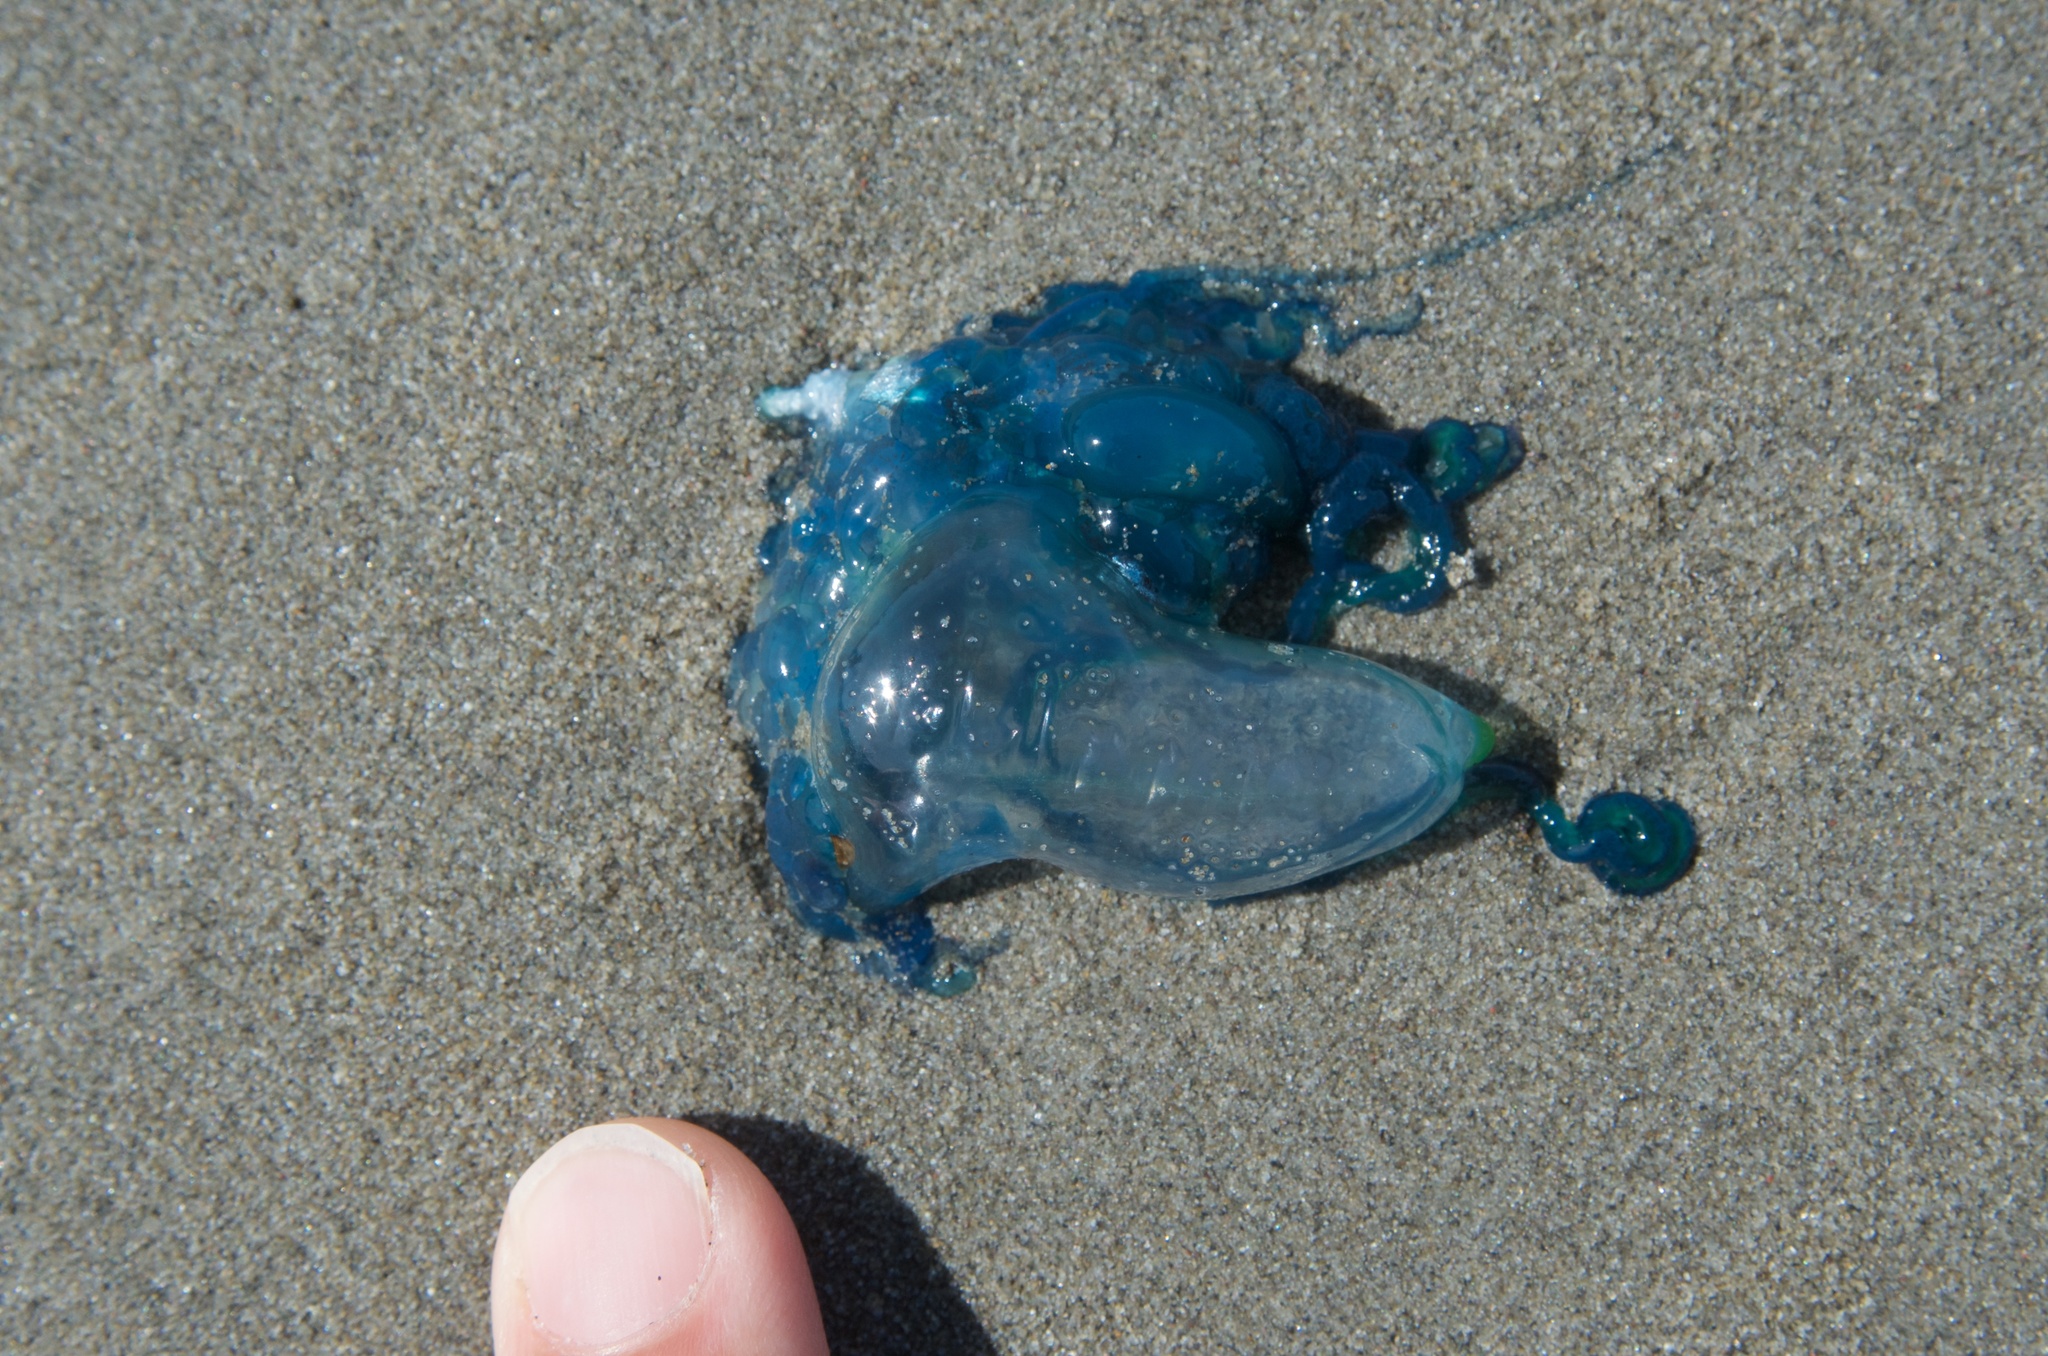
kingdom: Animalia
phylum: Cnidaria
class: Hydrozoa
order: Siphonophorae
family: Physaliidae
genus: Physalia
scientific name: Physalia physalis
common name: Portuguese man-of-war
